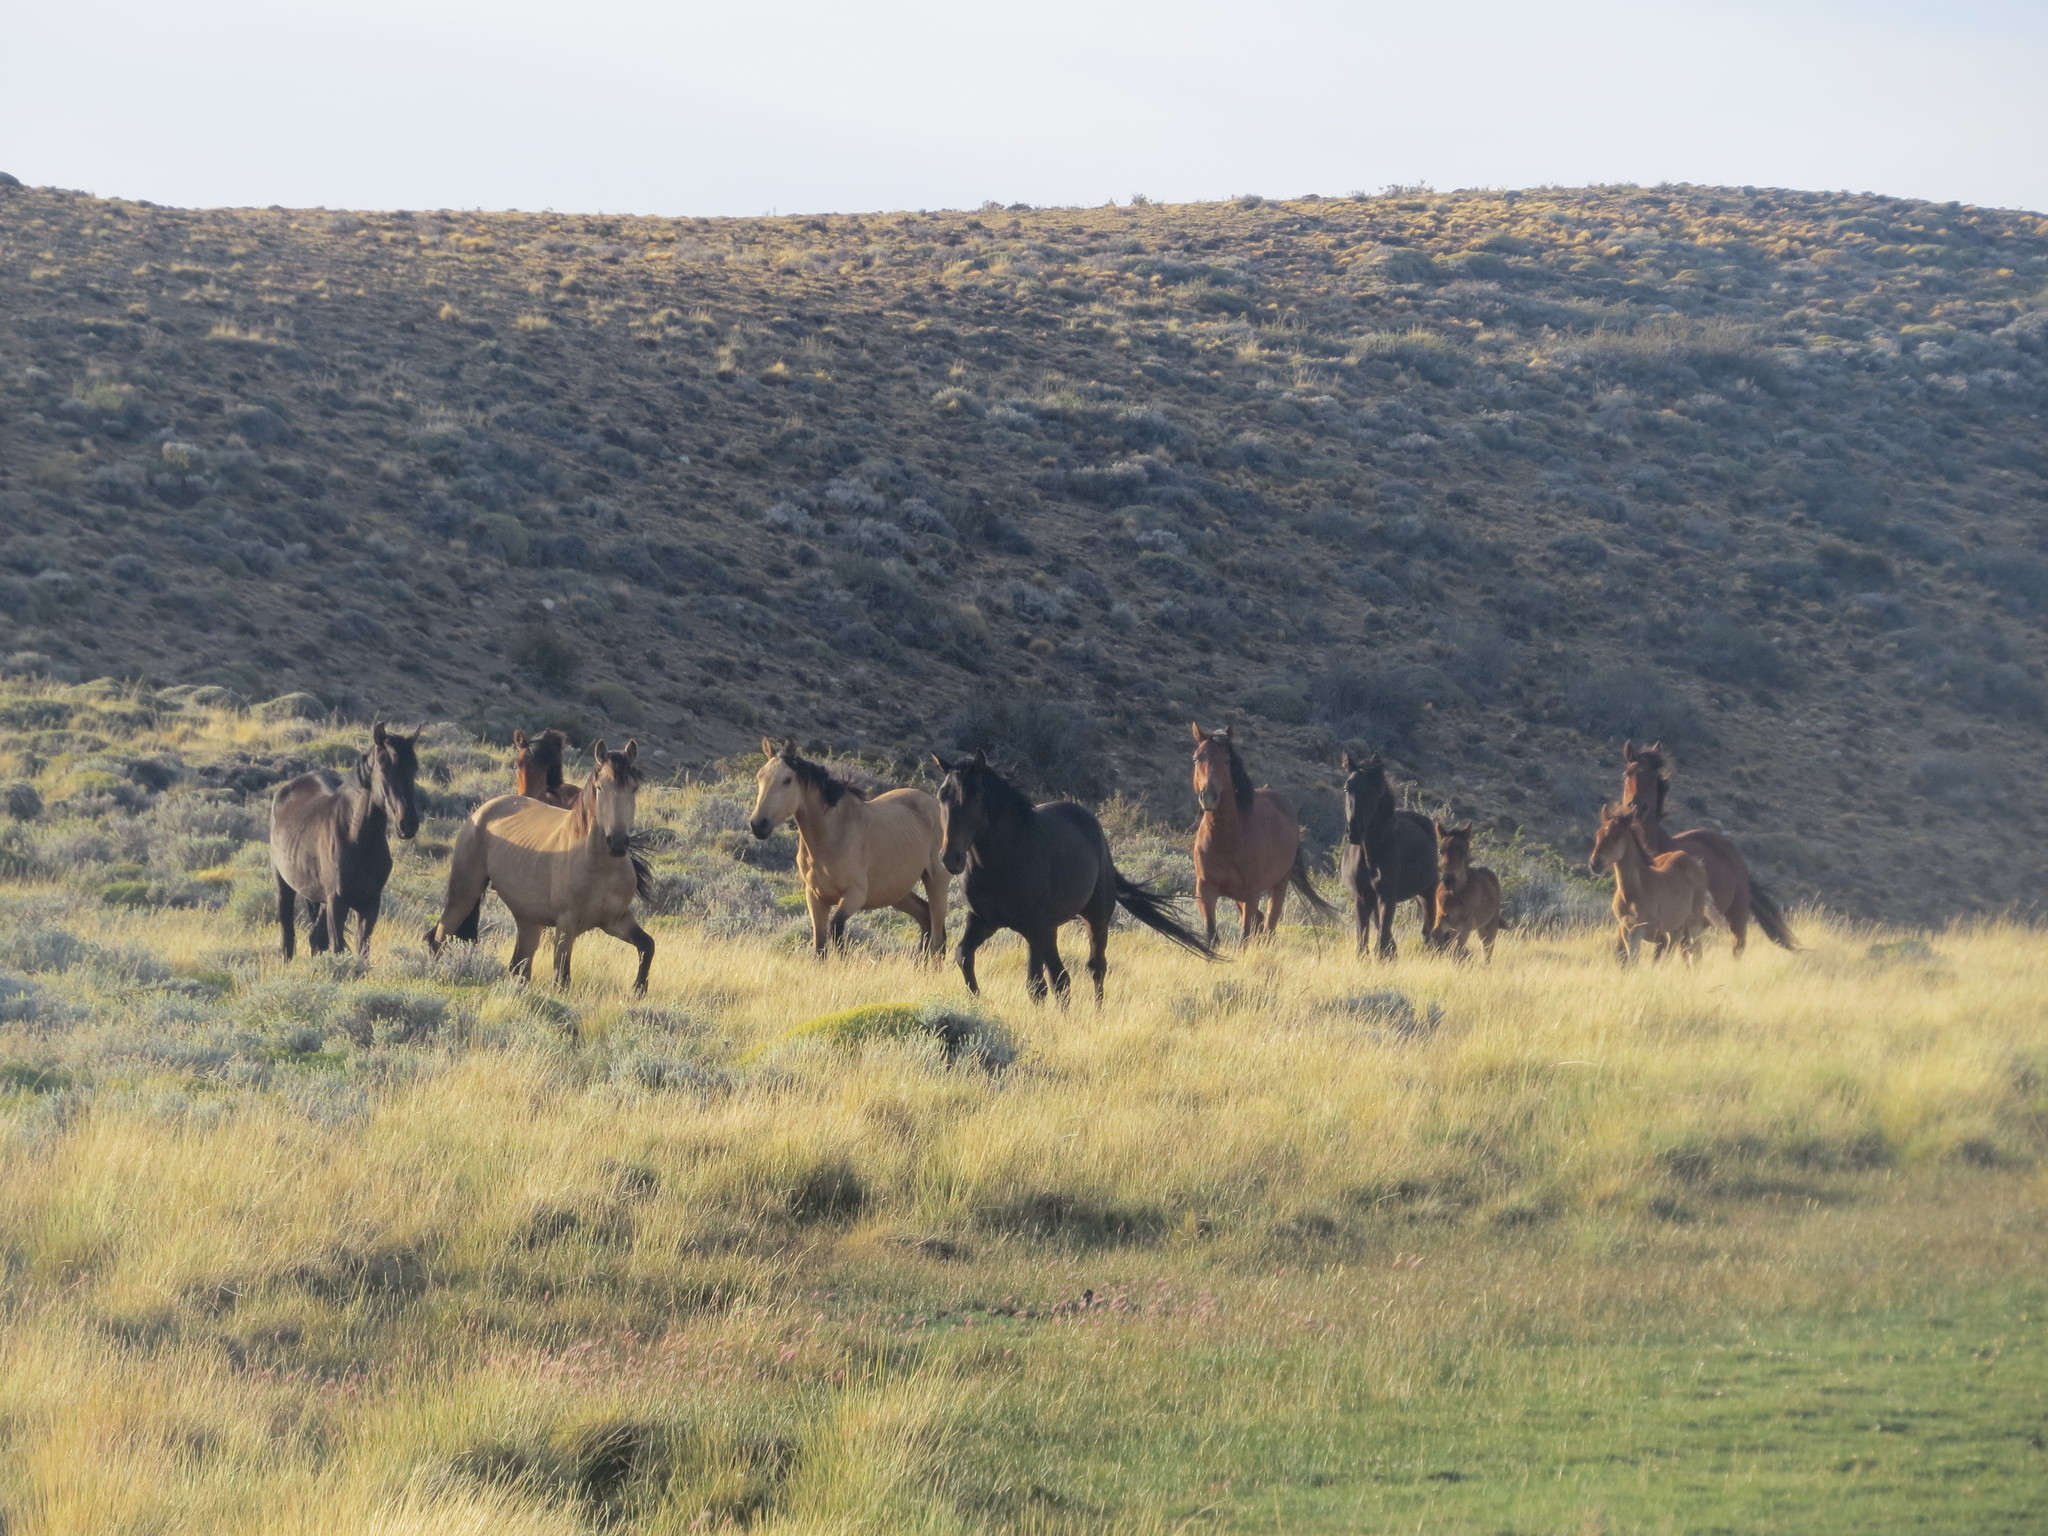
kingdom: Animalia
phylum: Chordata
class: Mammalia
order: Perissodactyla
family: Equidae
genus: Equus
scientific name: Equus caballus
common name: Horse
